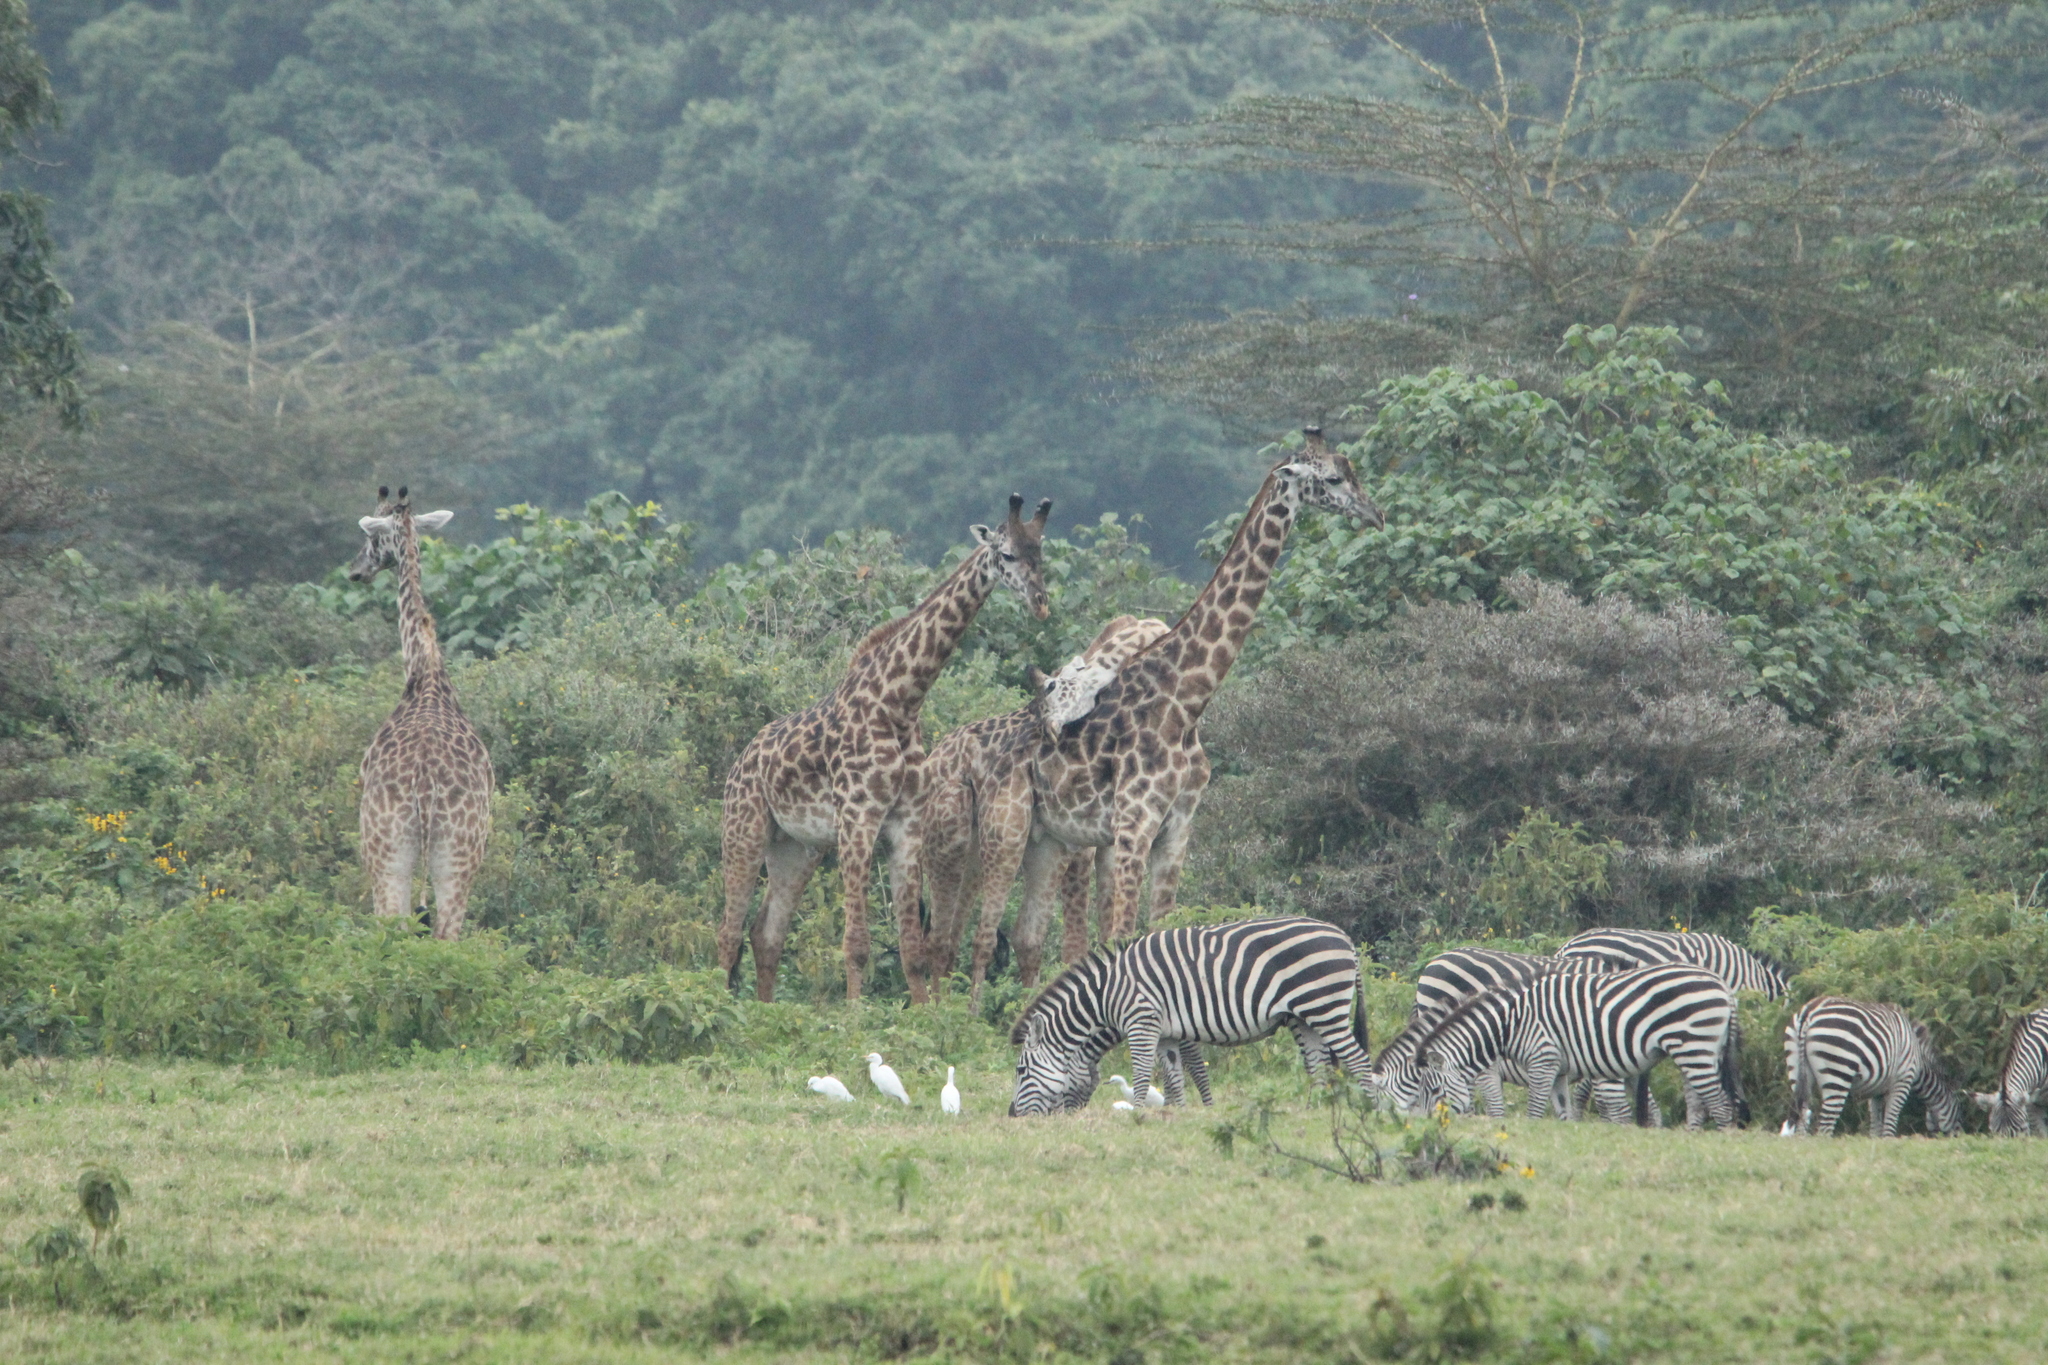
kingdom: Animalia
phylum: Chordata
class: Mammalia
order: Artiodactyla
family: Giraffidae
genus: Giraffa
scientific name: Giraffa tippelskirchi
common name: Masai giraffe
